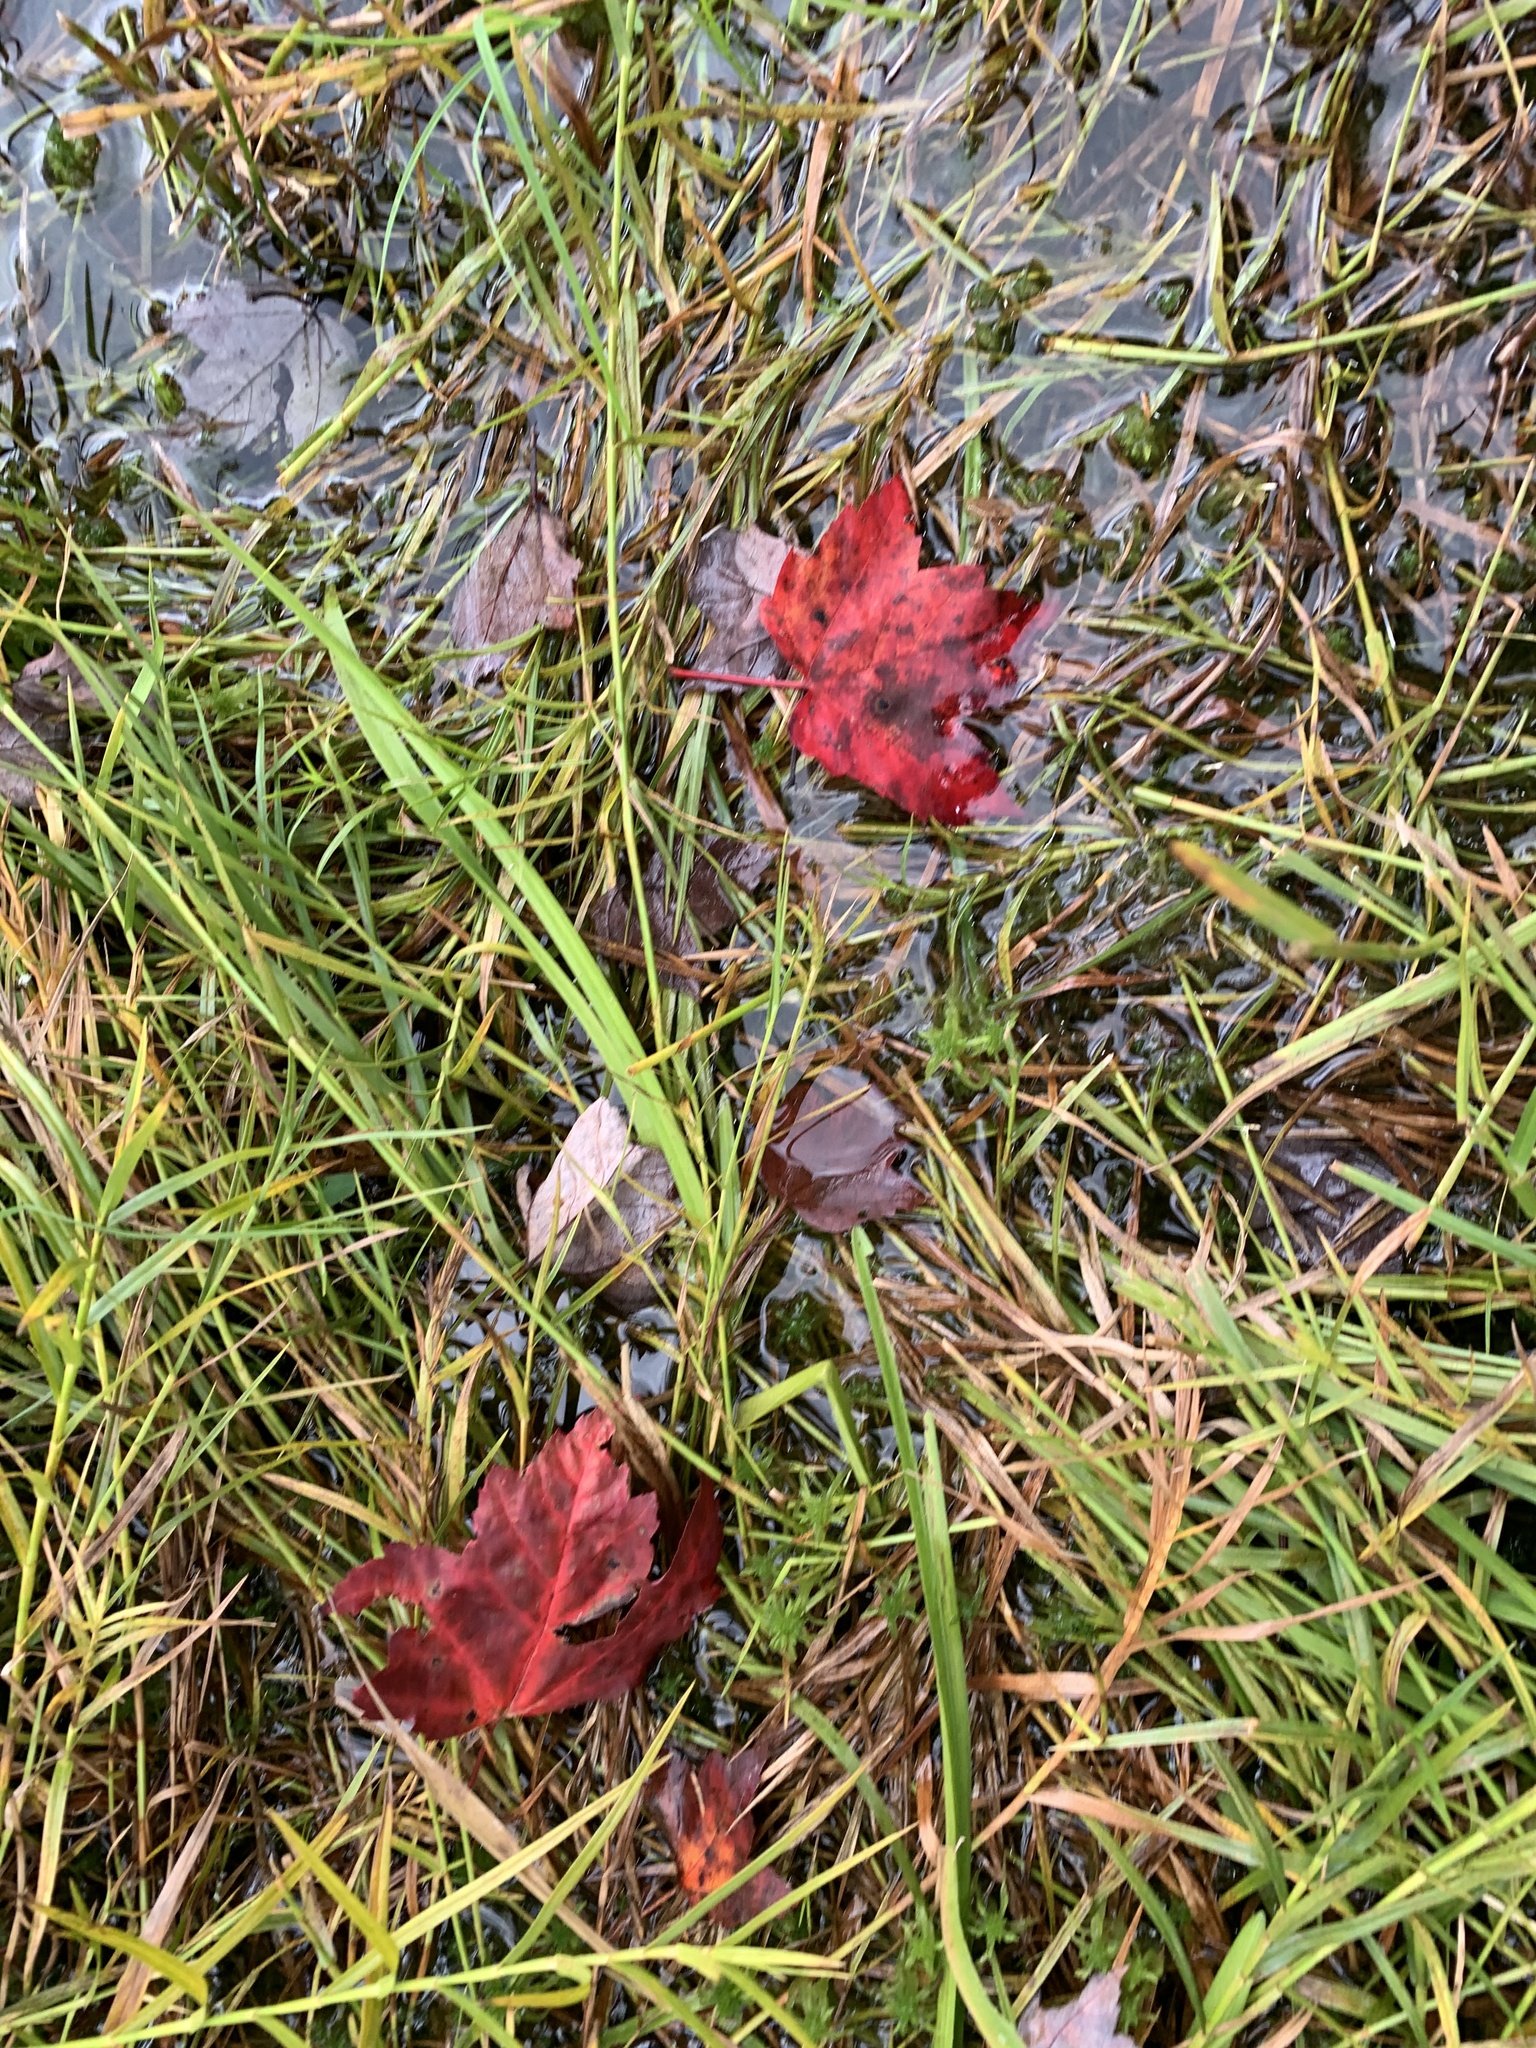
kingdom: Plantae
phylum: Tracheophyta
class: Magnoliopsida
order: Sapindales
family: Sapindaceae
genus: Acer
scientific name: Acer rubrum
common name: Red maple
